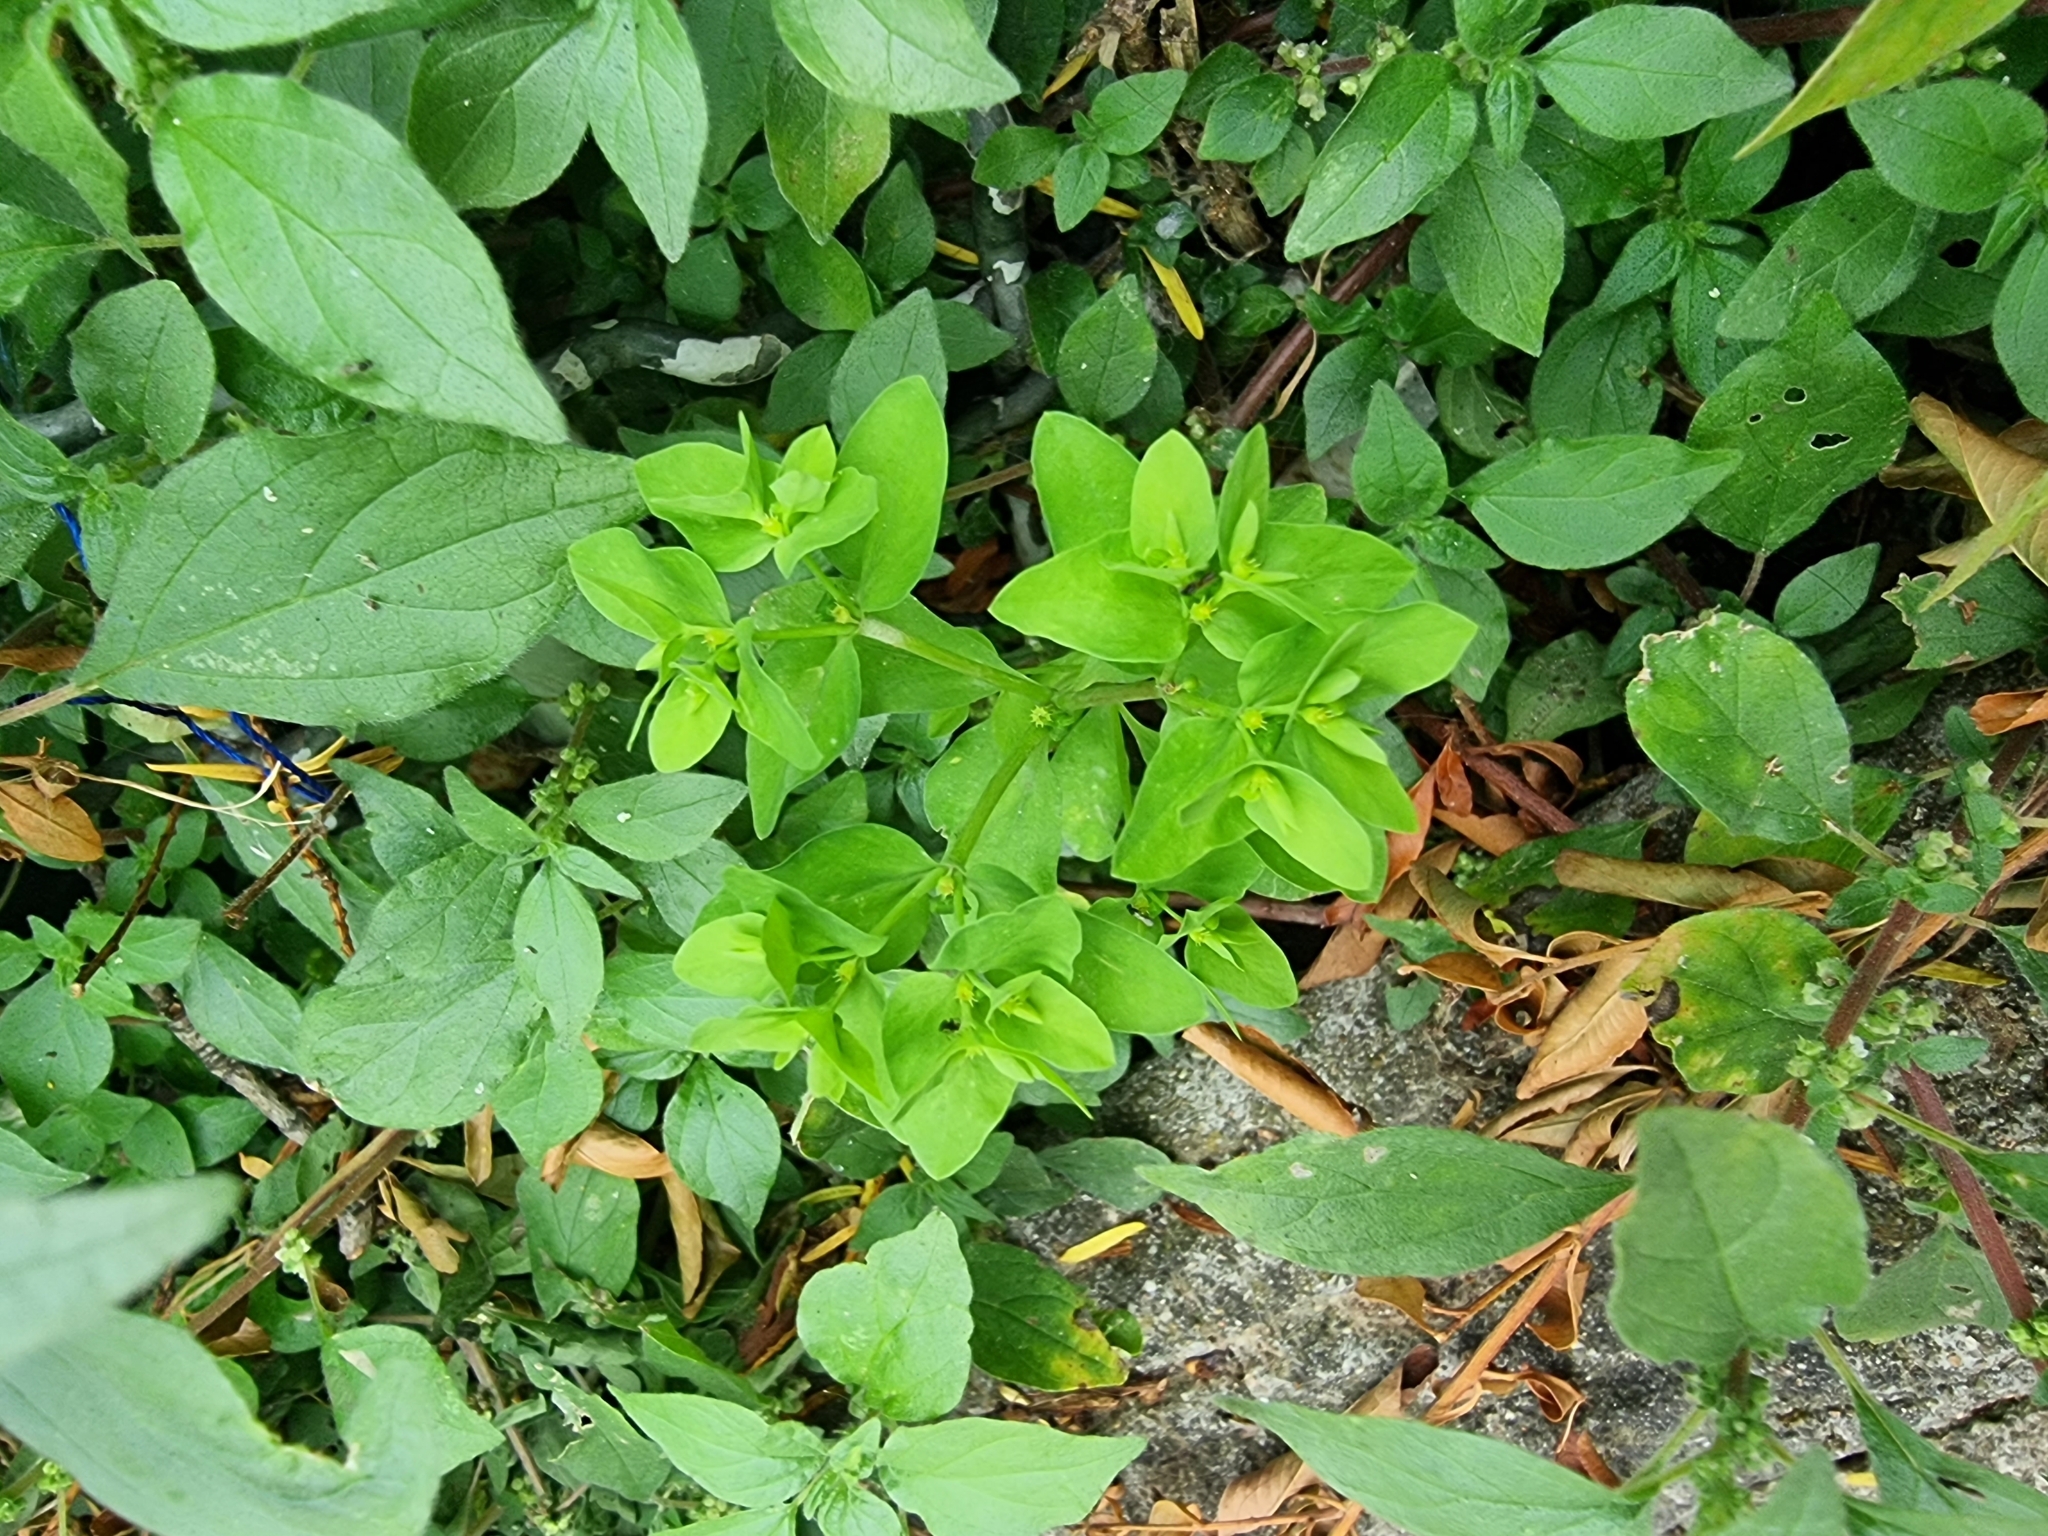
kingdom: Plantae
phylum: Tracheophyta
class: Magnoliopsida
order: Malpighiales
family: Euphorbiaceae
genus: Euphorbia
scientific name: Euphorbia peplus
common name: Petty spurge
